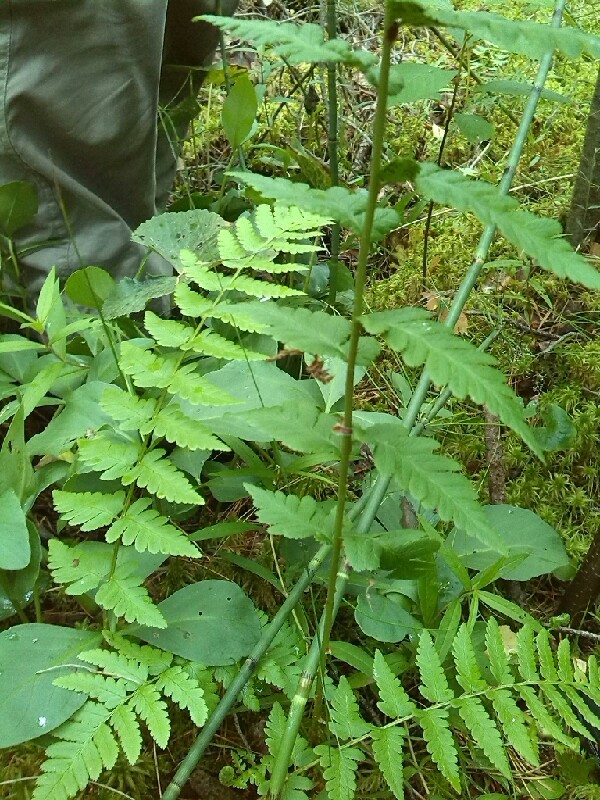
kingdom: Plantae
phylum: Tracheophyta
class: Polypodiopsida
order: Polypodiales
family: Dryopteridaceae
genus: Dryopteris
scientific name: Dryopteris cristata
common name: Crested wood fern
